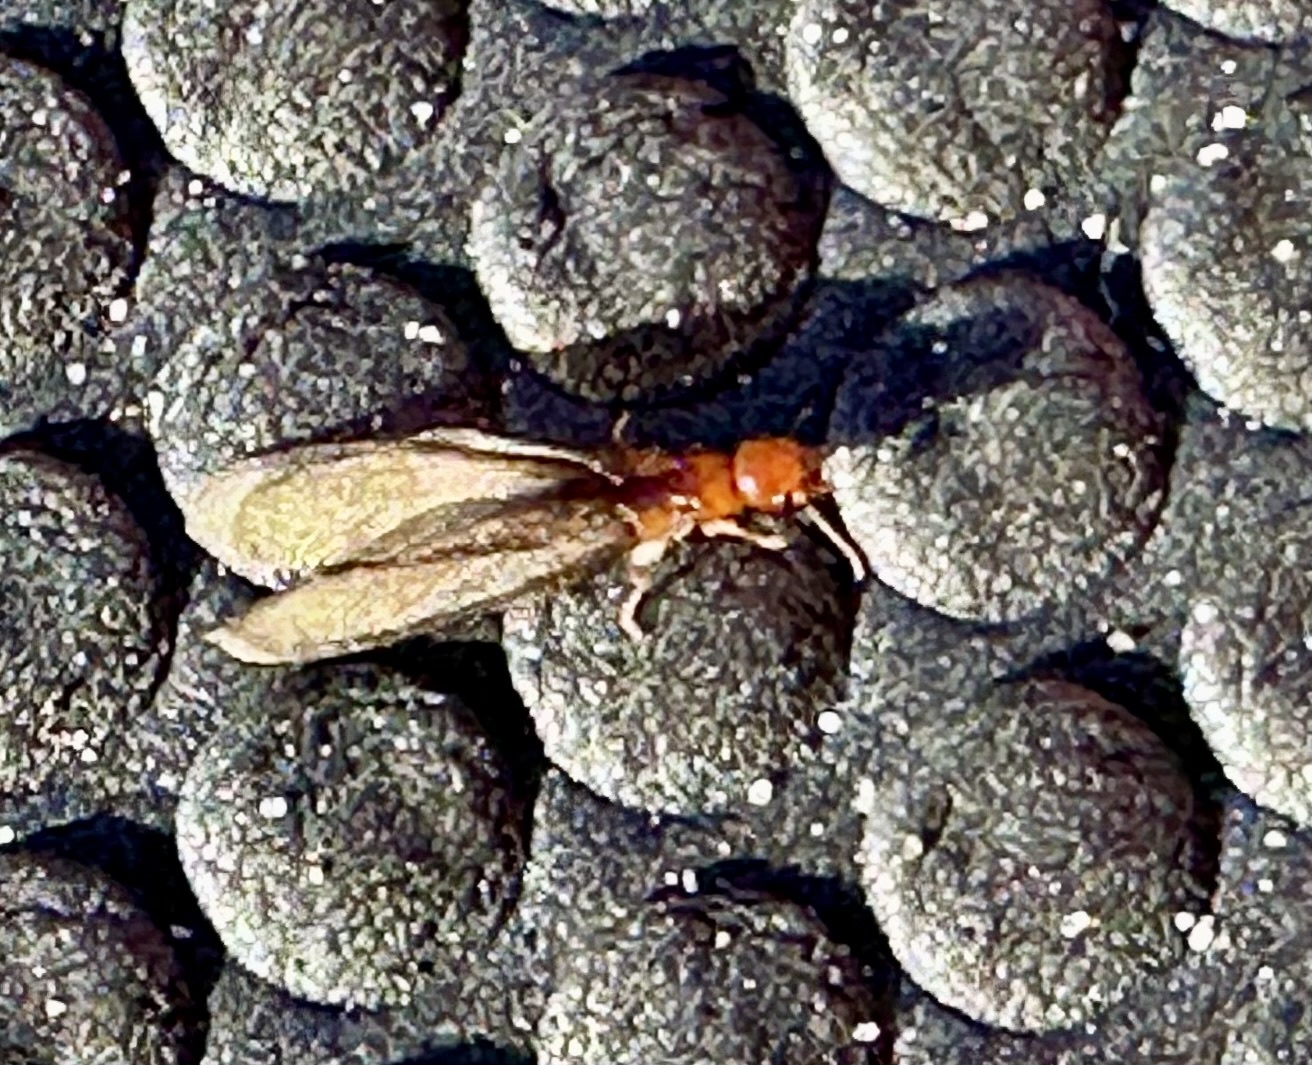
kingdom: Animalia
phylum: Arthropoda
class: Insecta
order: Blattodea
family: Kalotermitidae
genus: Incisitermes
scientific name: Incisitermes minor
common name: Termite
